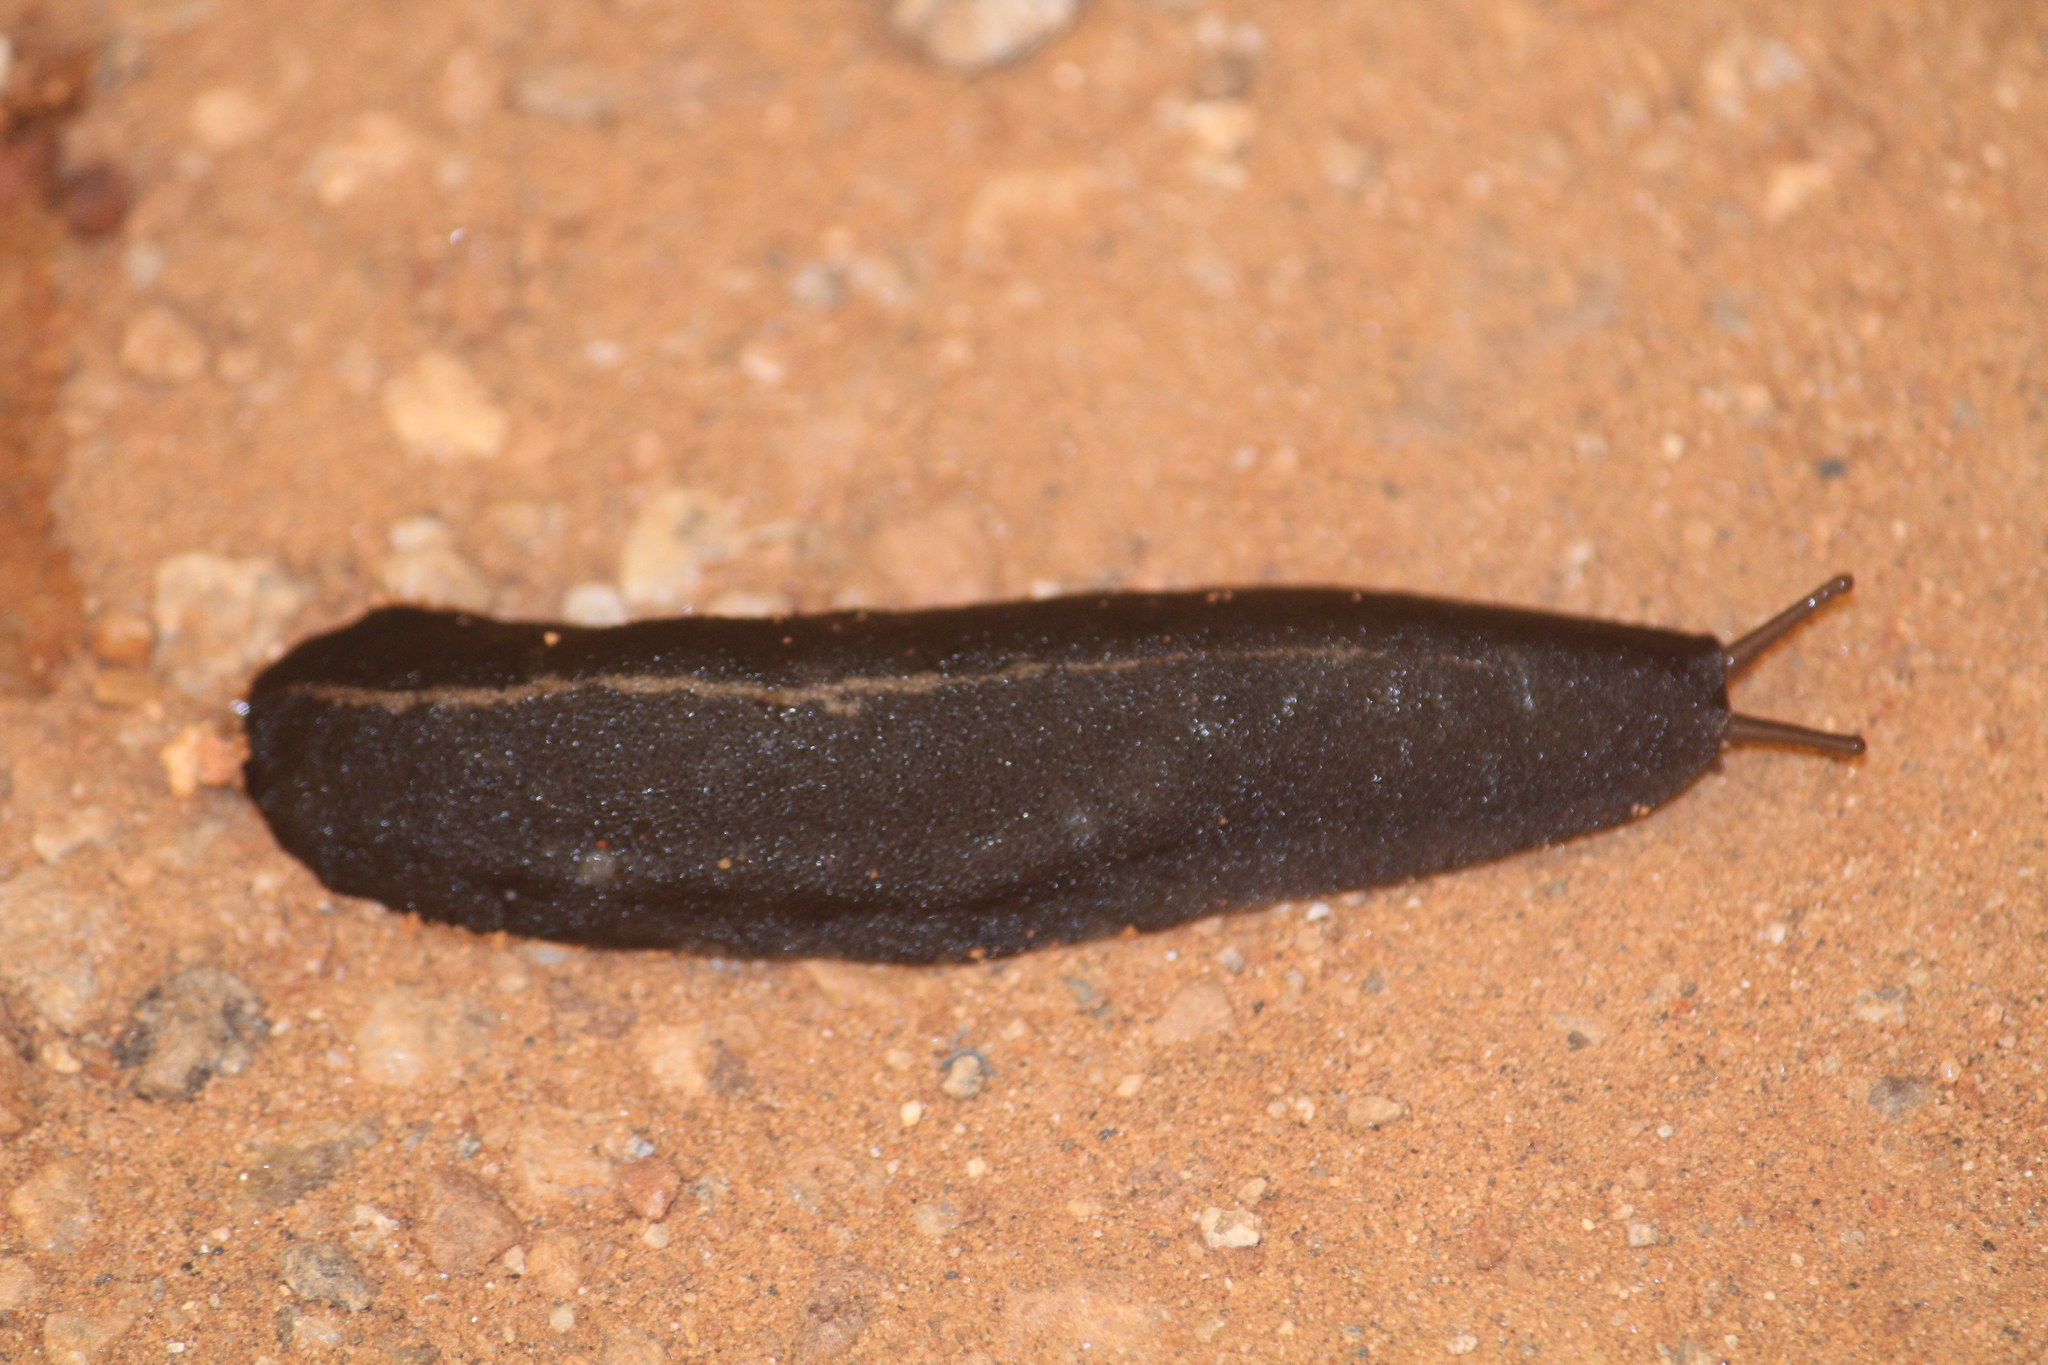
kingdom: Animalia
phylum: Mollusca
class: Gastropoda
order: Systellommatophora
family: Veronicellidae
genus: Laevicaulis
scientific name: Laevicaulis alte
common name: Tropical leatherleaf
